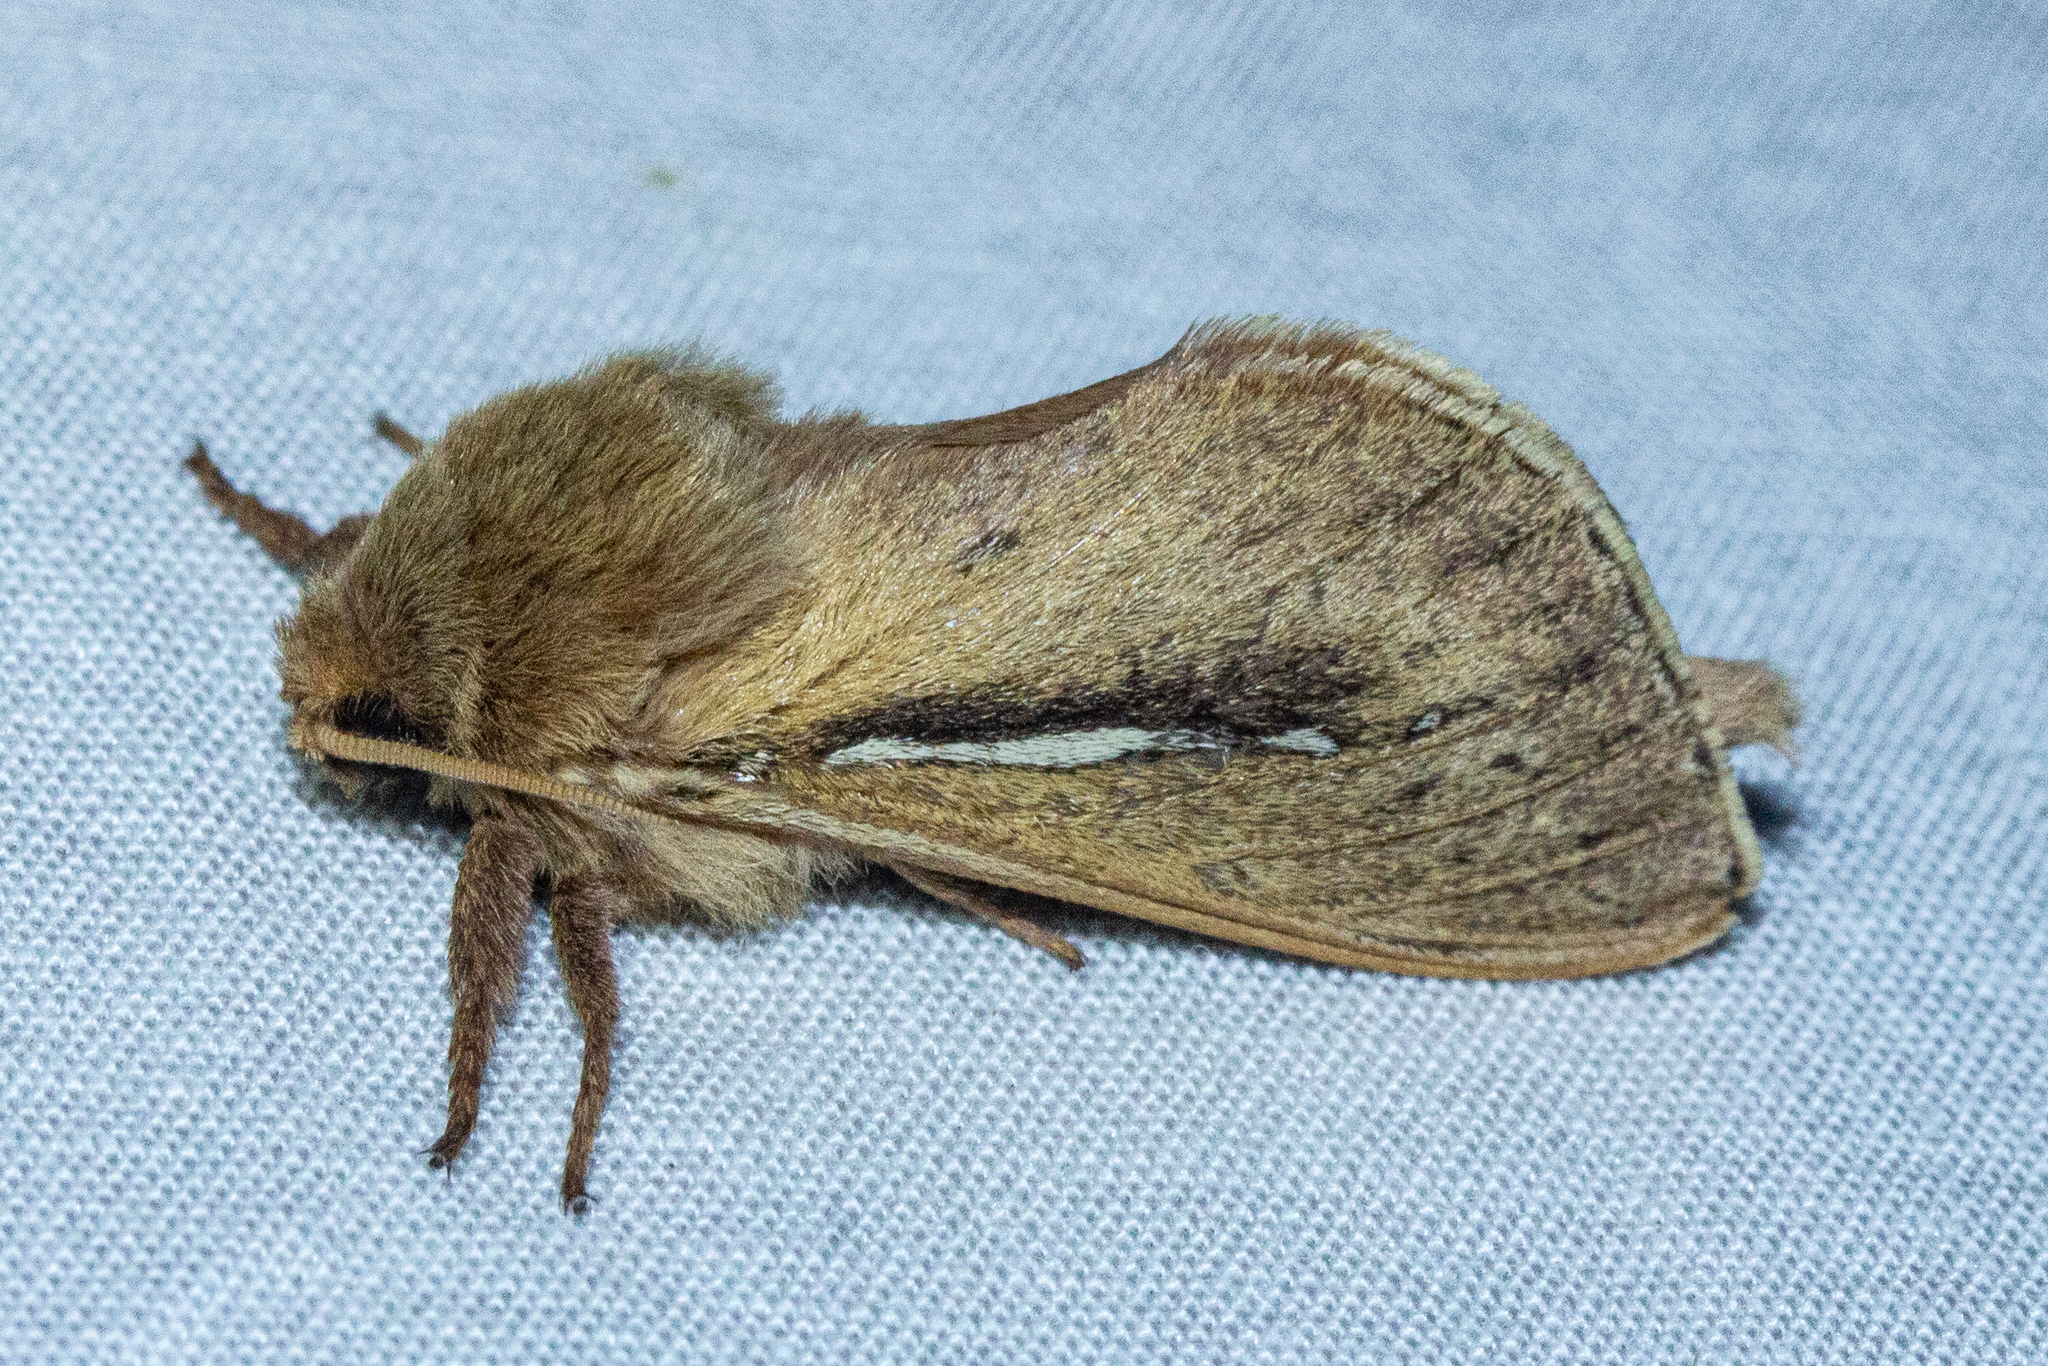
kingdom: Animalia
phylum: Arthropoda
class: Insecta
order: Lepidoptera
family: Hepialidae
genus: Wiseana
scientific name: Wiseana umbraculatus
